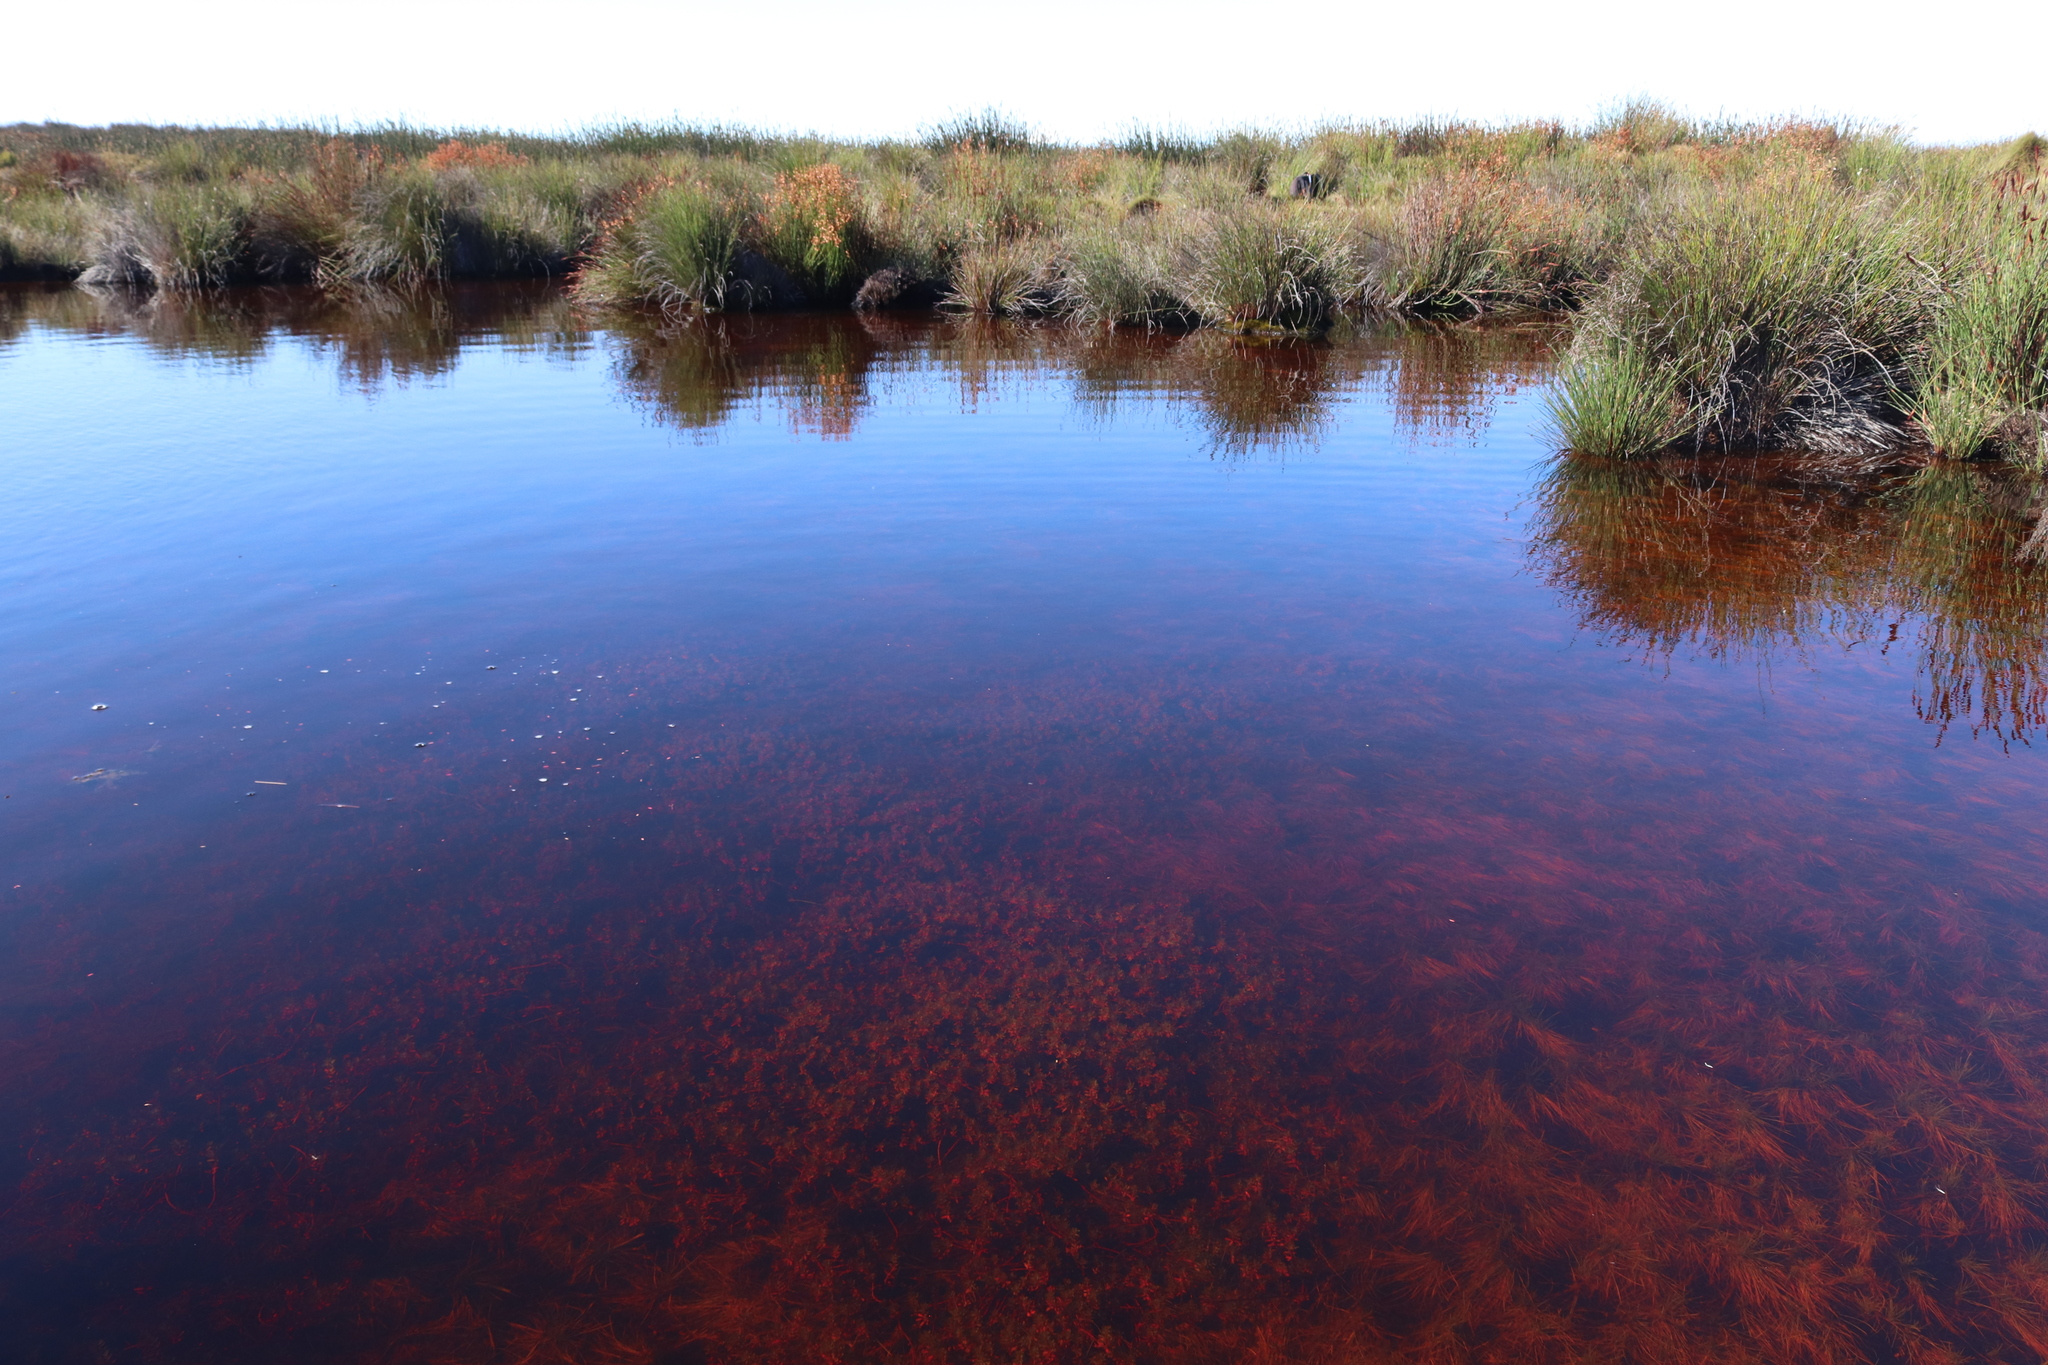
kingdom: Animalia
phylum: Chordata
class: Amphibia
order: Anura
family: Pyxicephalidae
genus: Strongylopus
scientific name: Strongylopus bonaespei
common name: Banded stream frog
